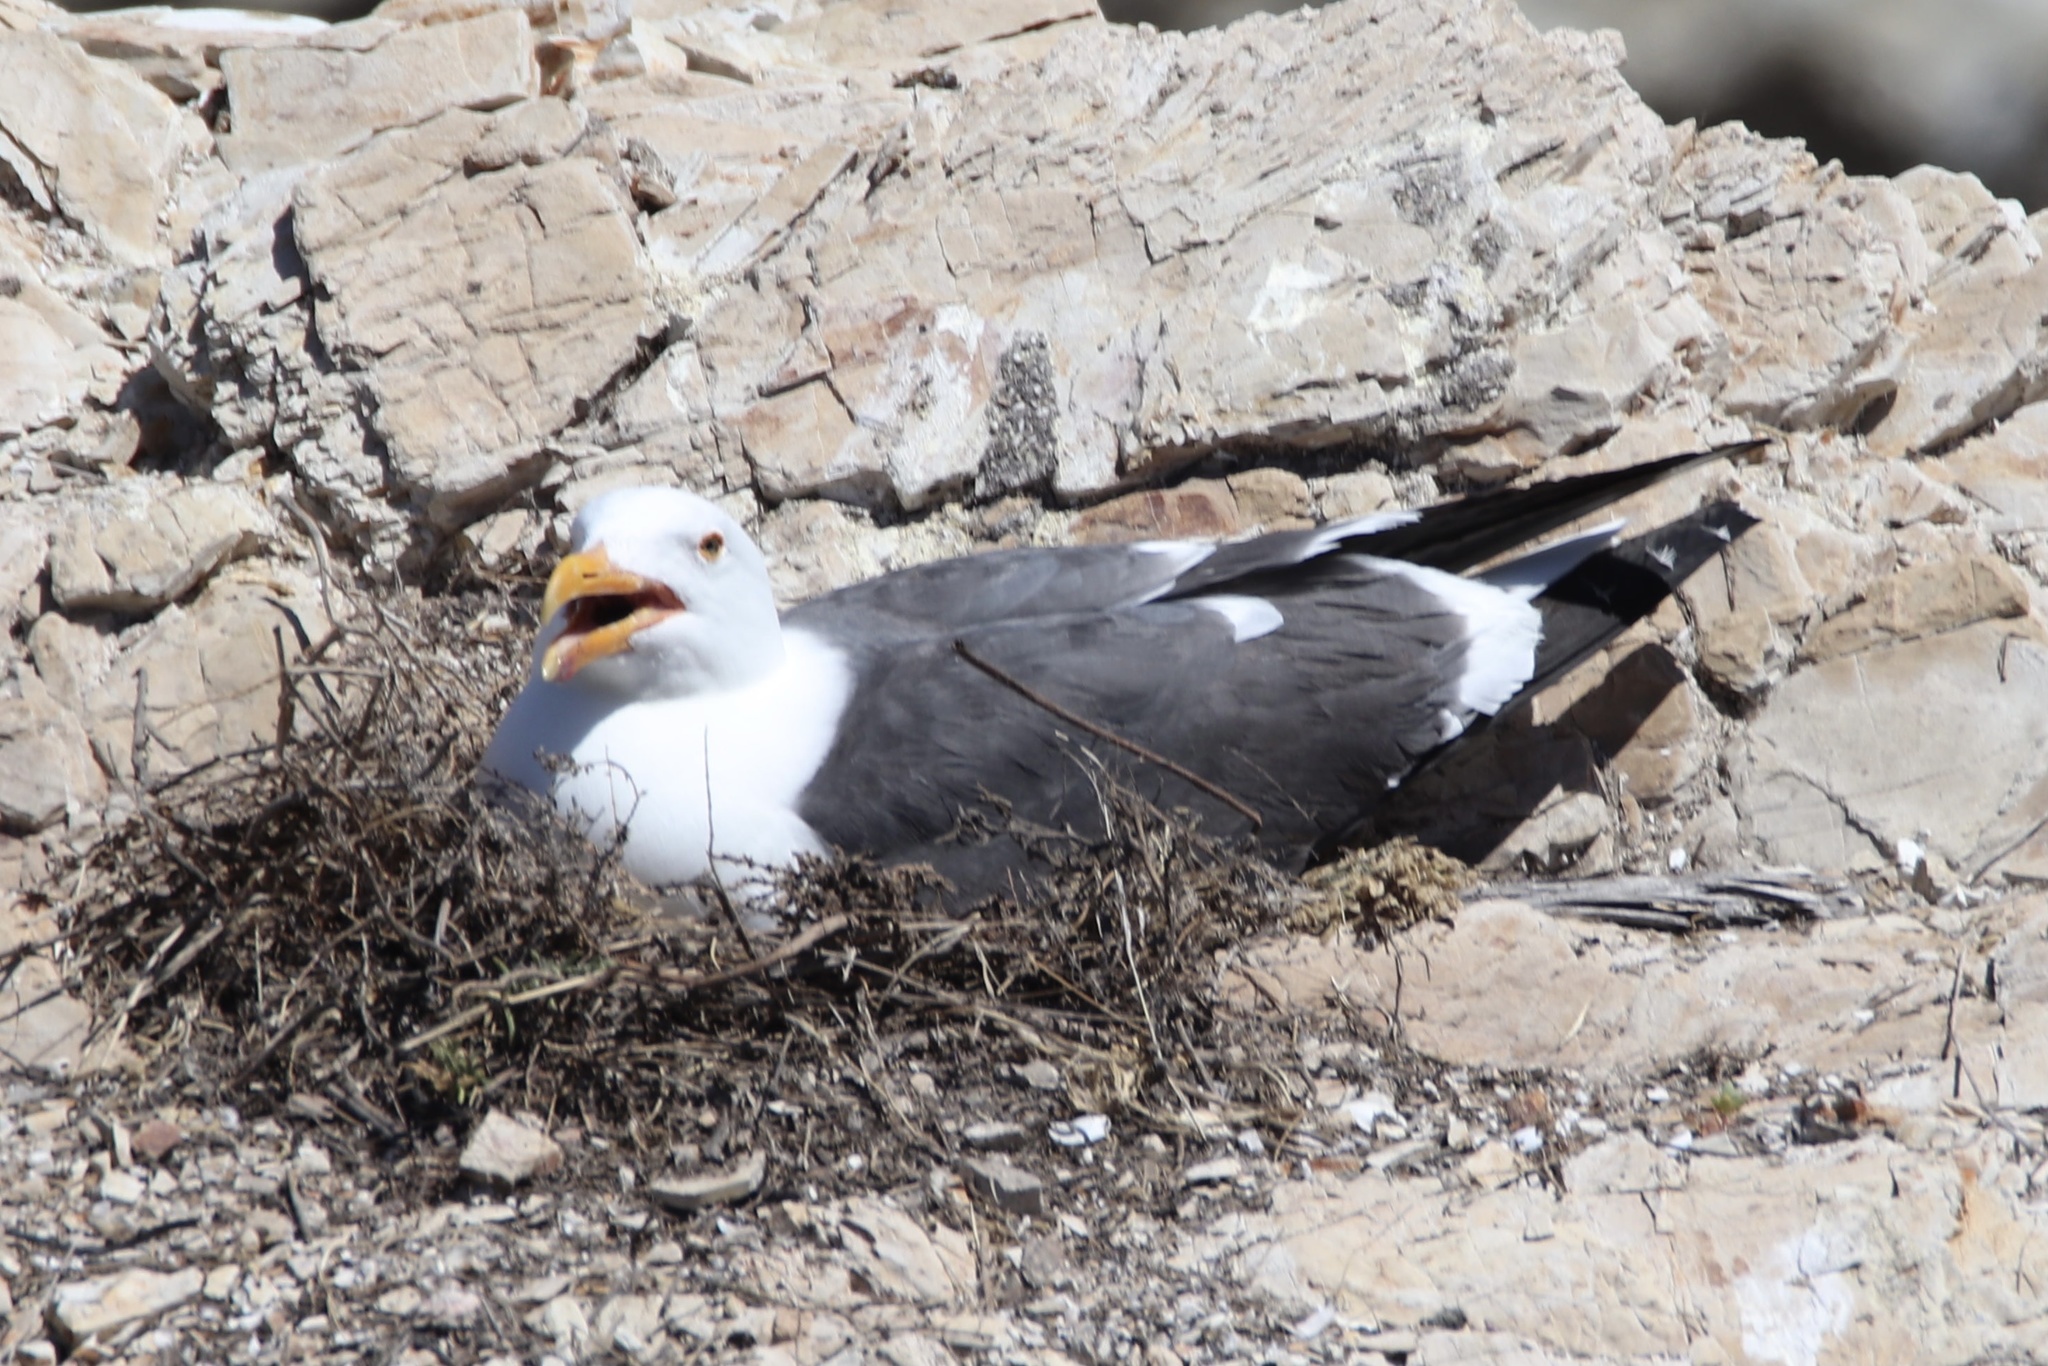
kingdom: Animalia
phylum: Chordata
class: Aves
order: Charadriiformes
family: Laridae
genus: Larus
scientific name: Larus occidentalis
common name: Western gull
